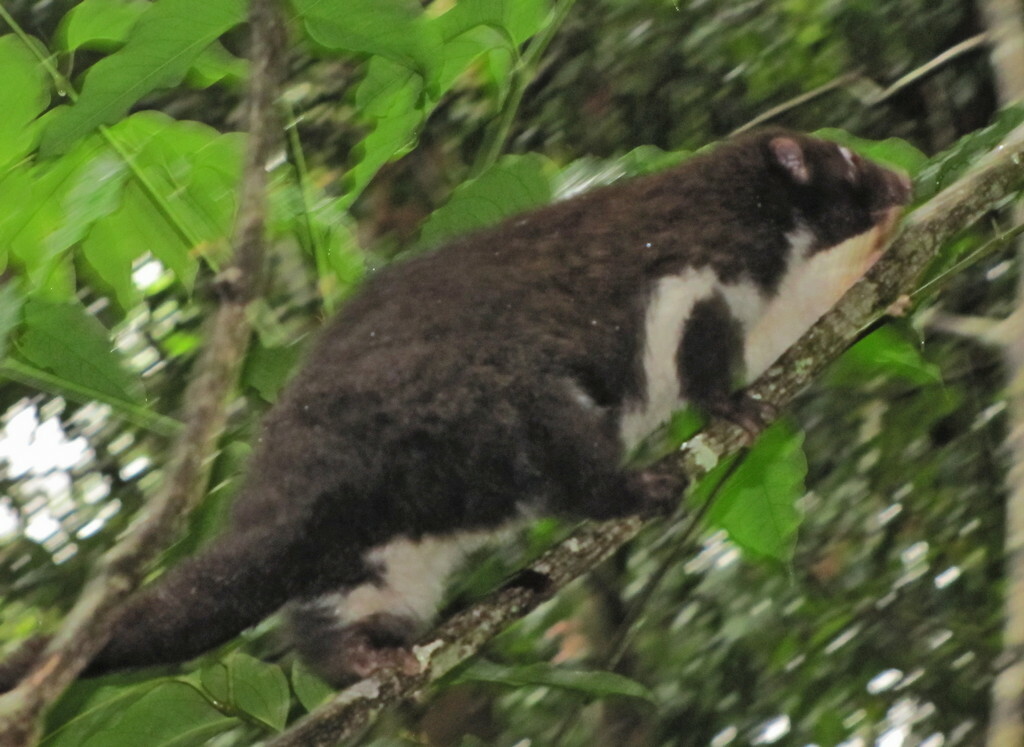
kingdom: Animalia
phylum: Chordata
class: Mammalia
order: Diprotodontia
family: Pseudocheiridae
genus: Pseudochirulus
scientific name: Pseudochirulus herbertensis
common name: Herbert river ringtail
